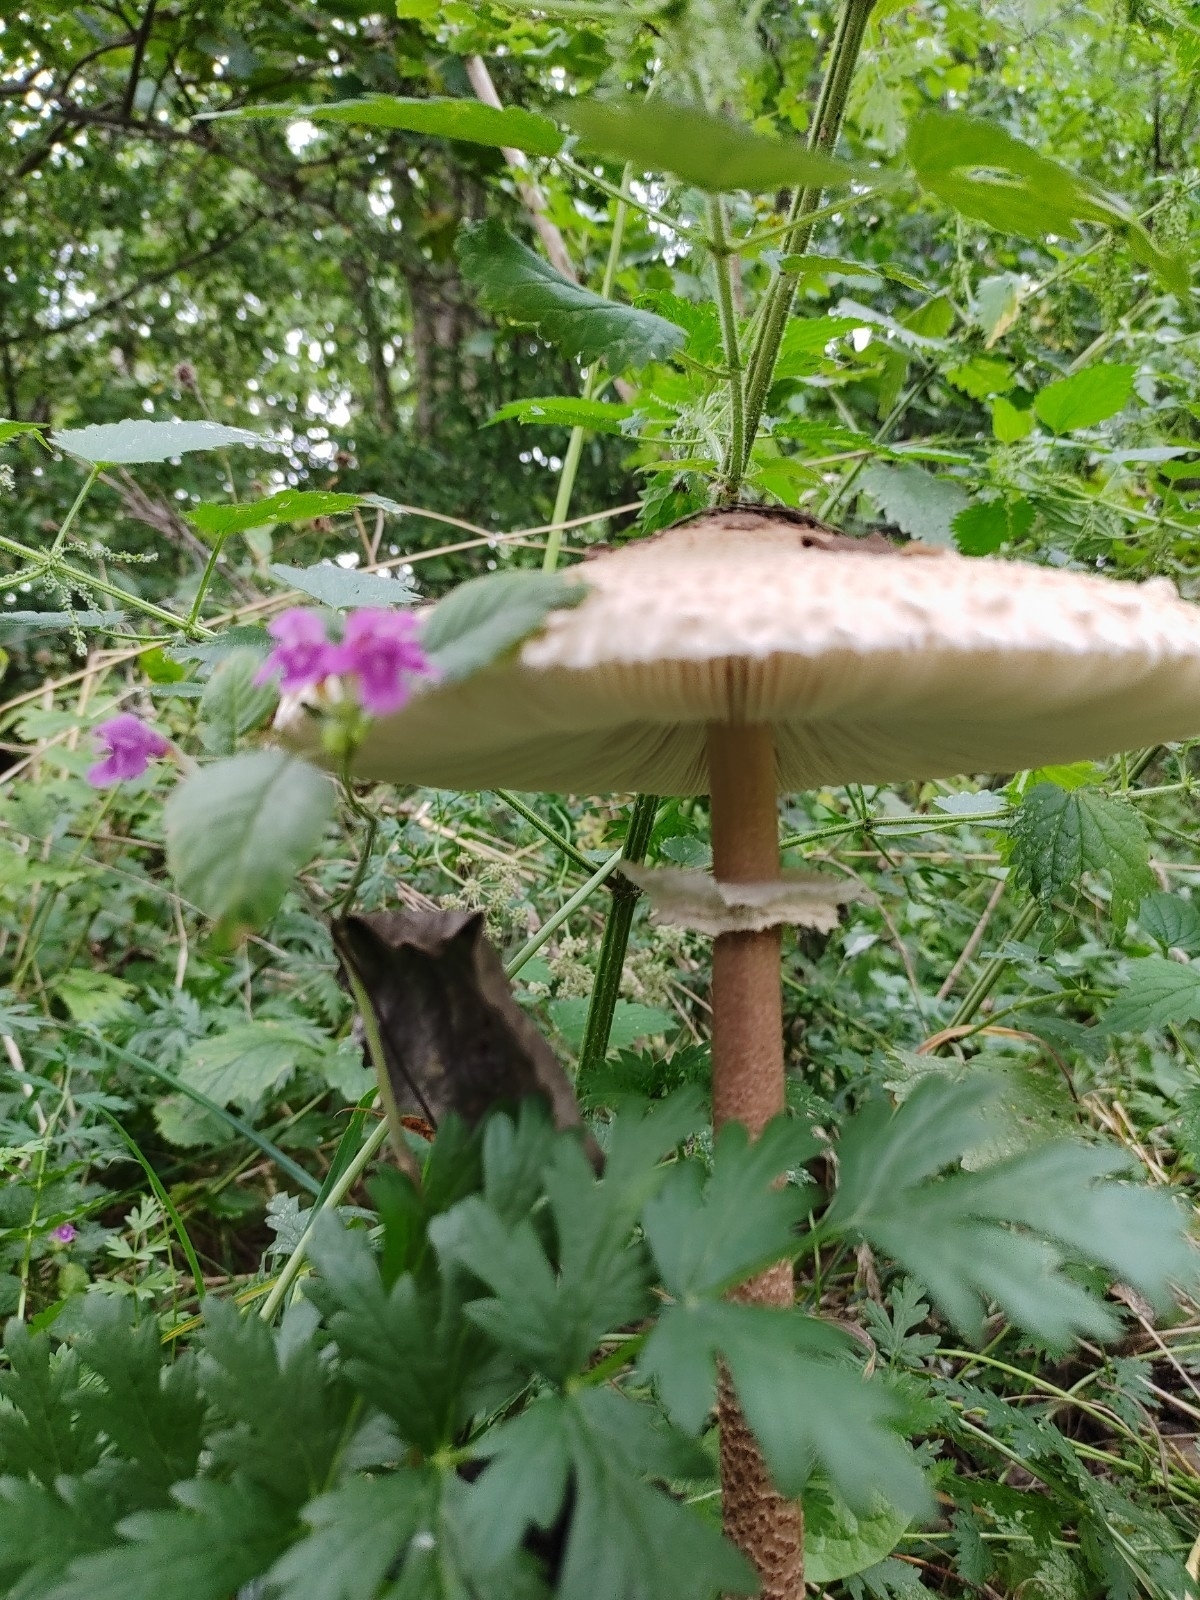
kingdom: Fungi
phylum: Basidiomycota
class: Agaricomycetes
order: Agaricales
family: Agaricaceae
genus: Macrolepiota
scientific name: Macrolepiota procera
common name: Parasol
